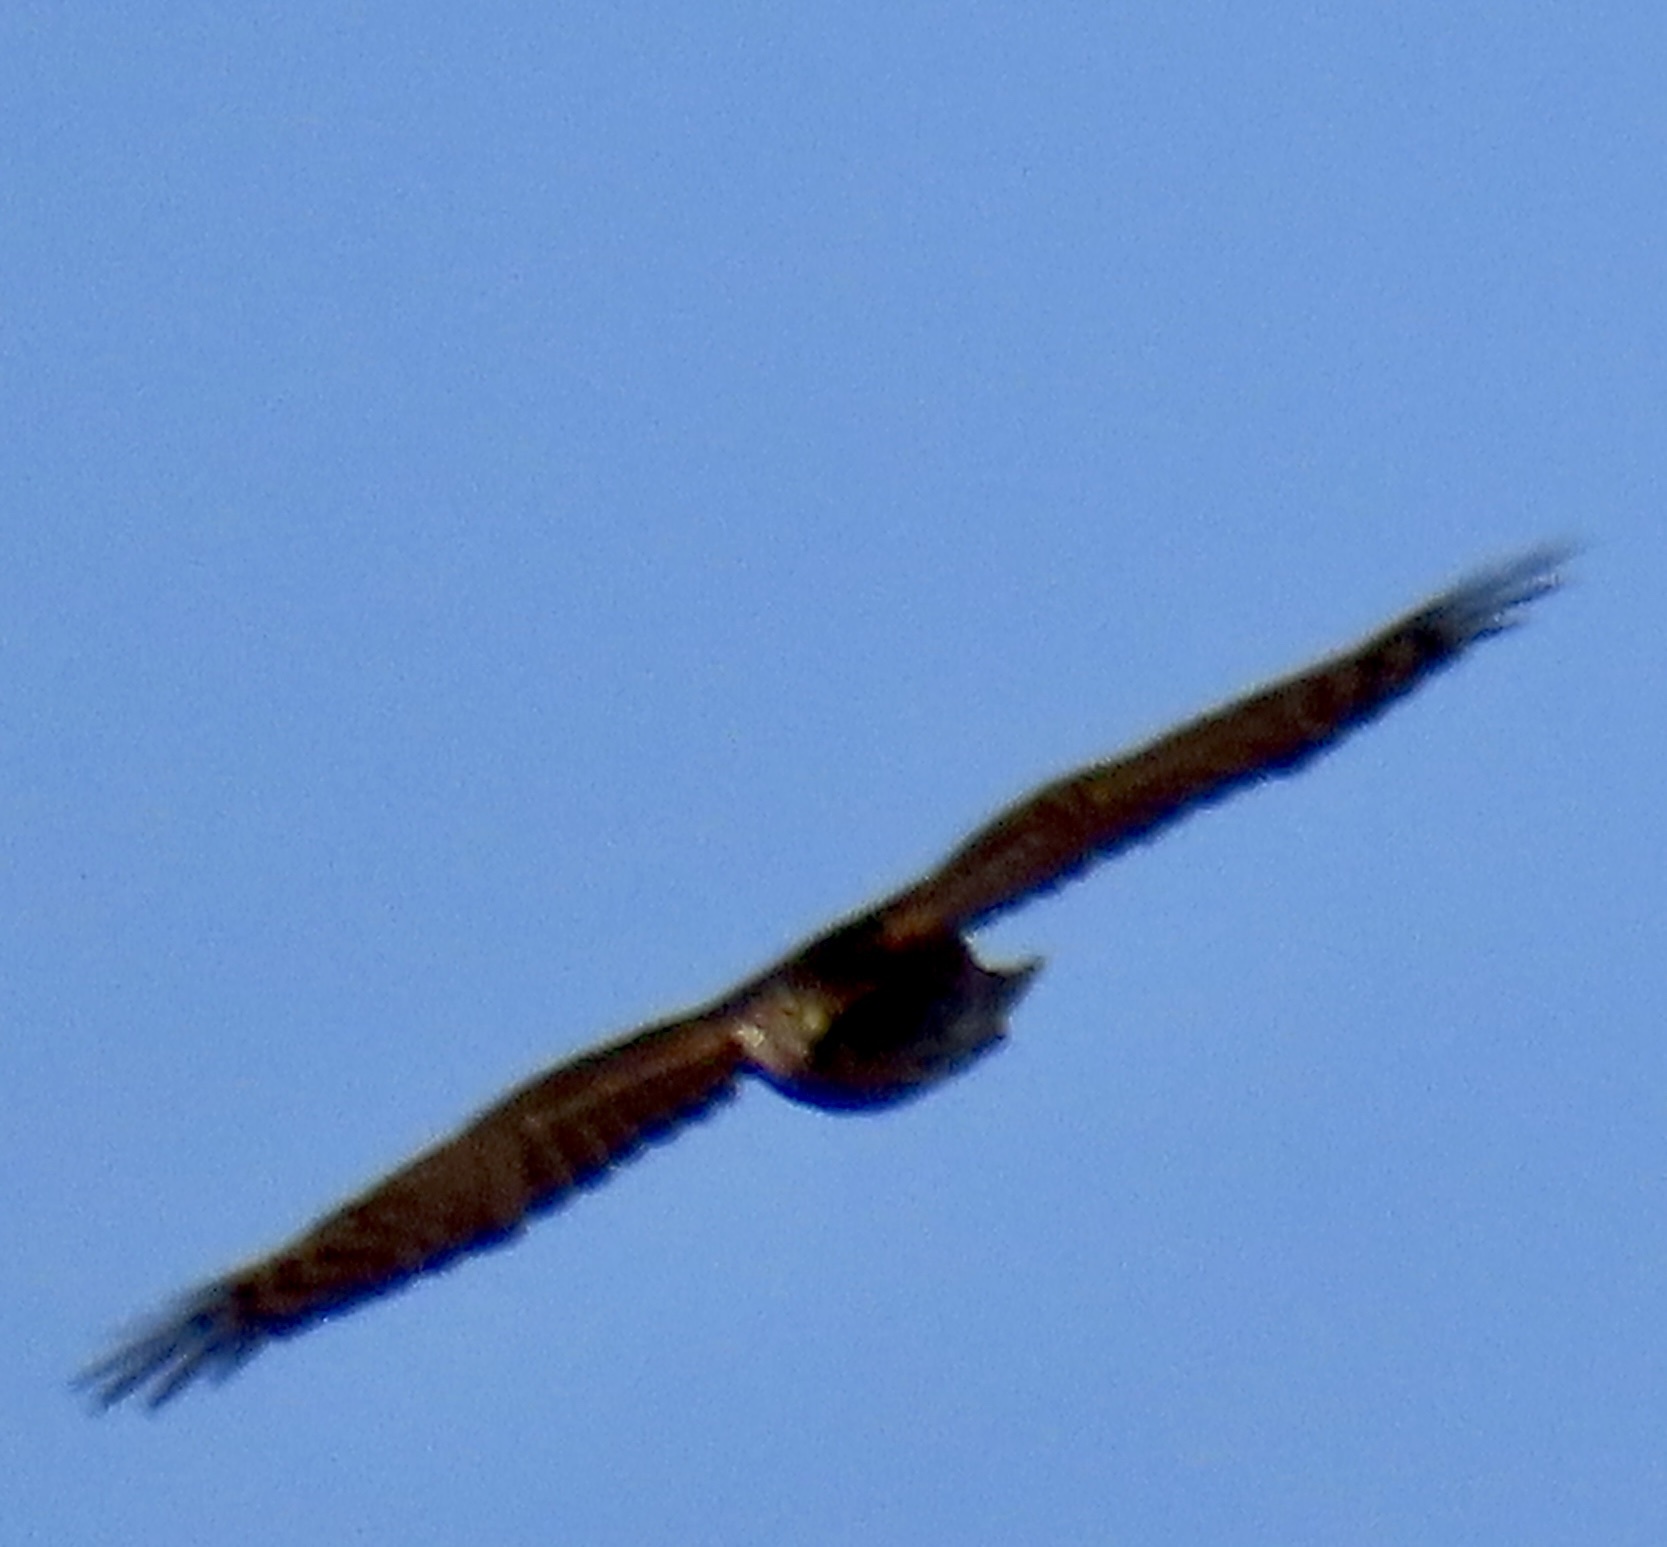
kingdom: Animalia
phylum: Chordata
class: Aves
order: Accipitriformes
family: Accipitridae
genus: Accipiter
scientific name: Accipiter striatus
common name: Sharp-shinned hawk
